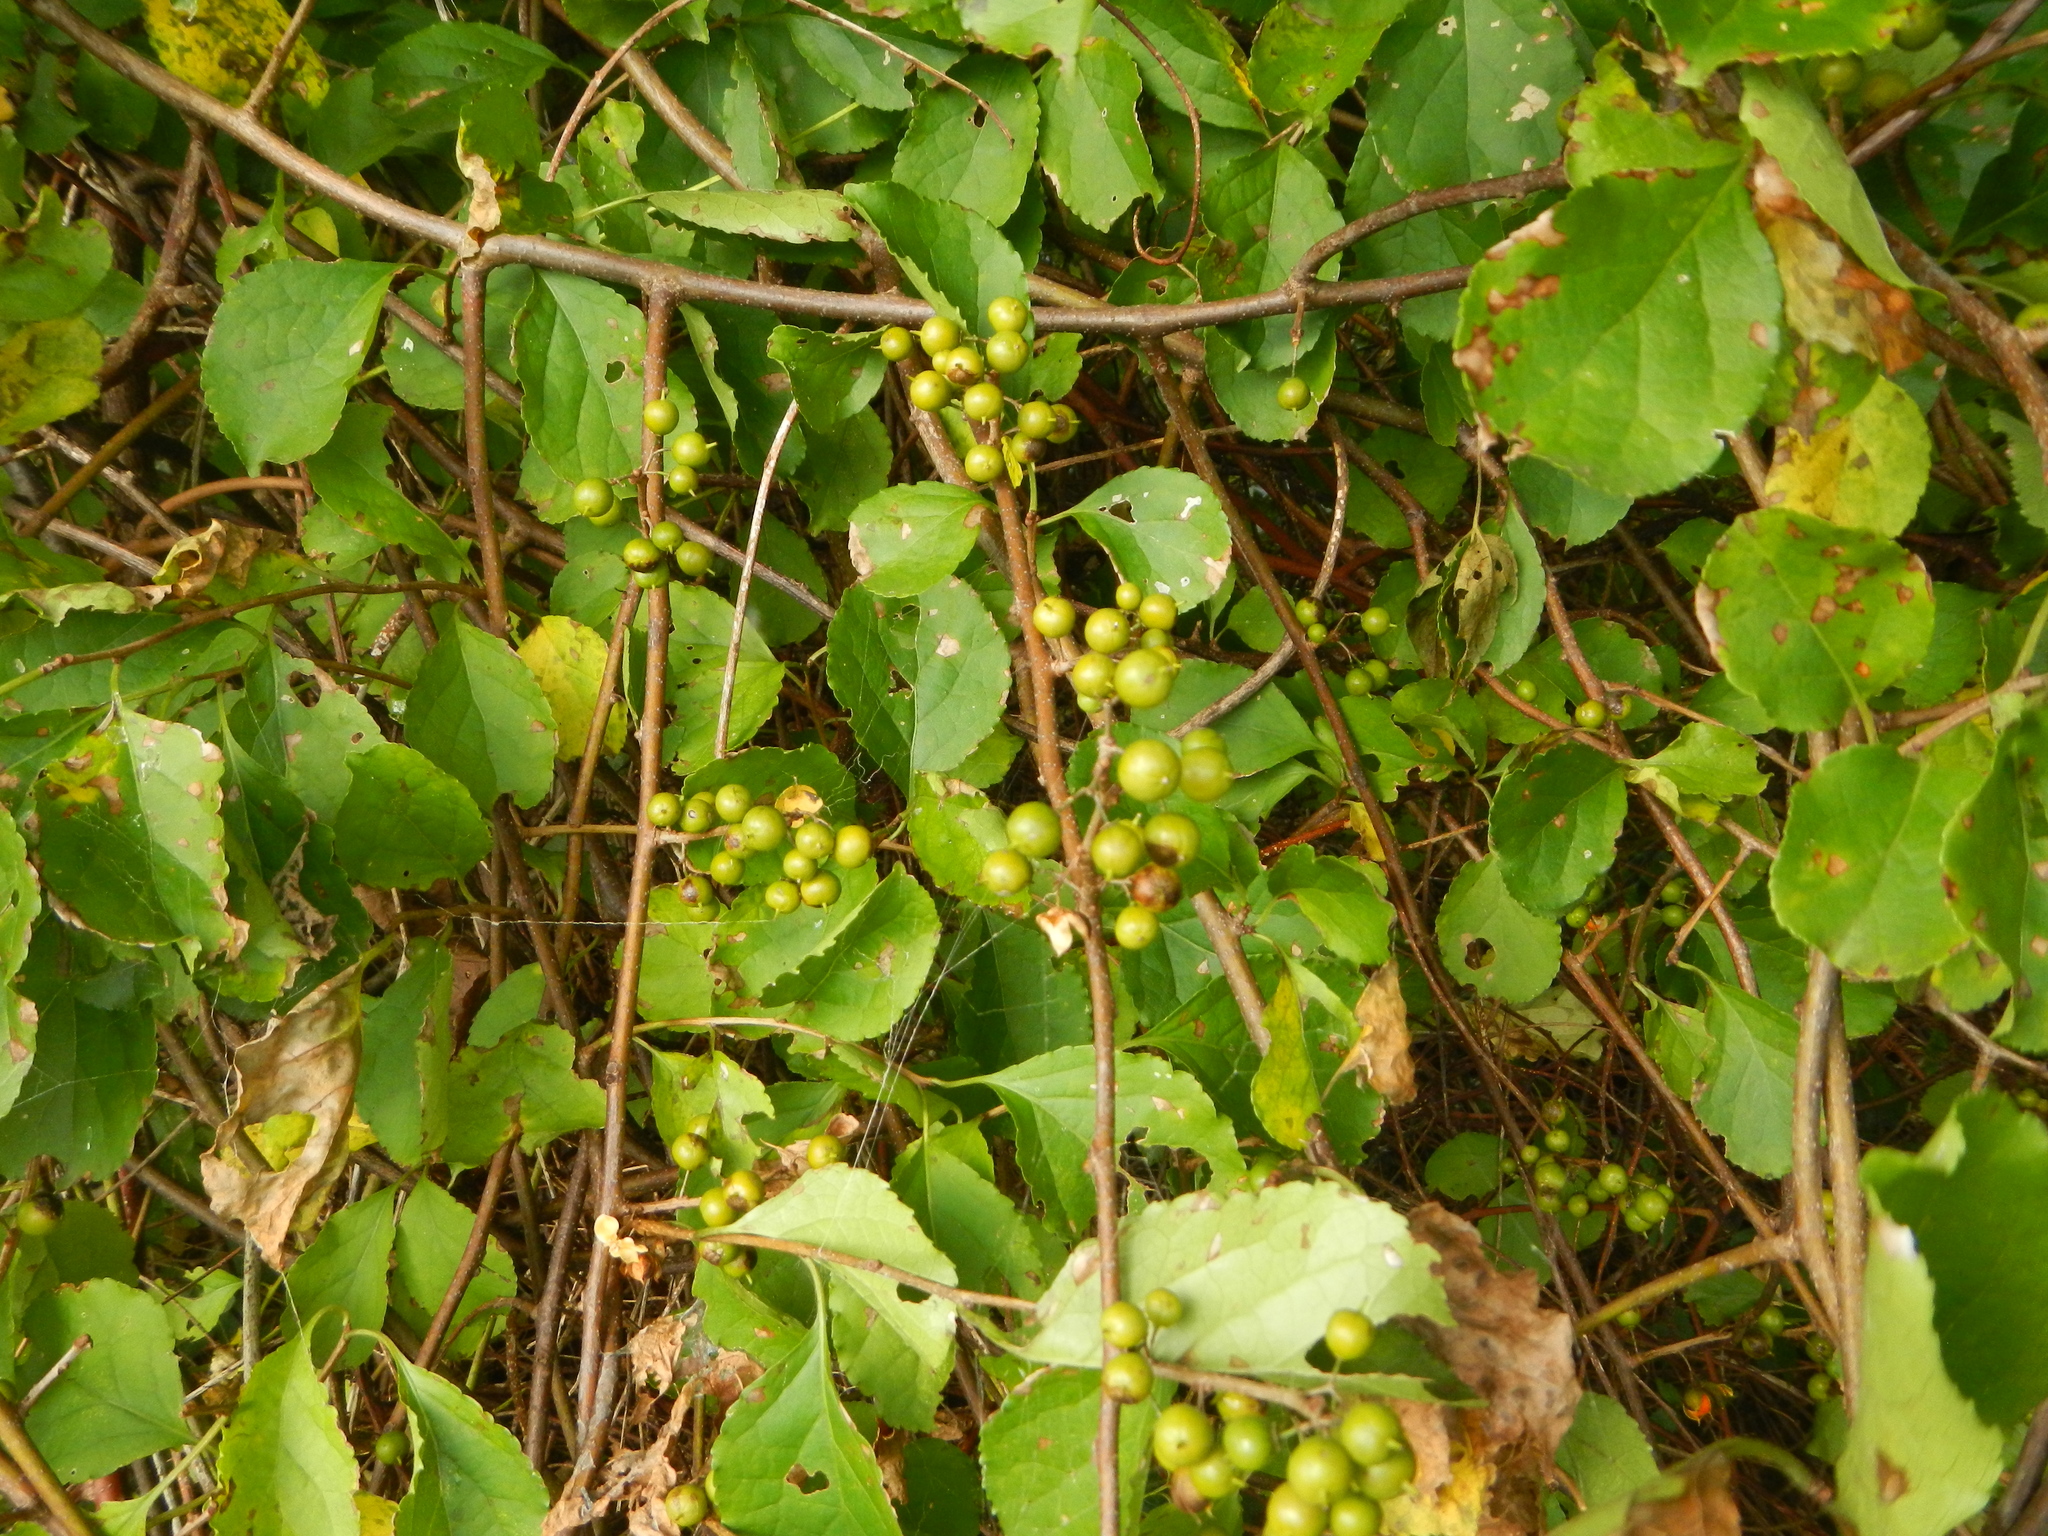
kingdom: Plantae
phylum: Tracheophyta
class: Magnoliopsida
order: Celastrales
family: Celastraceae
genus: Celastrus
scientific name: Celastrus orbiculatus
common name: Oriental bittersweet
